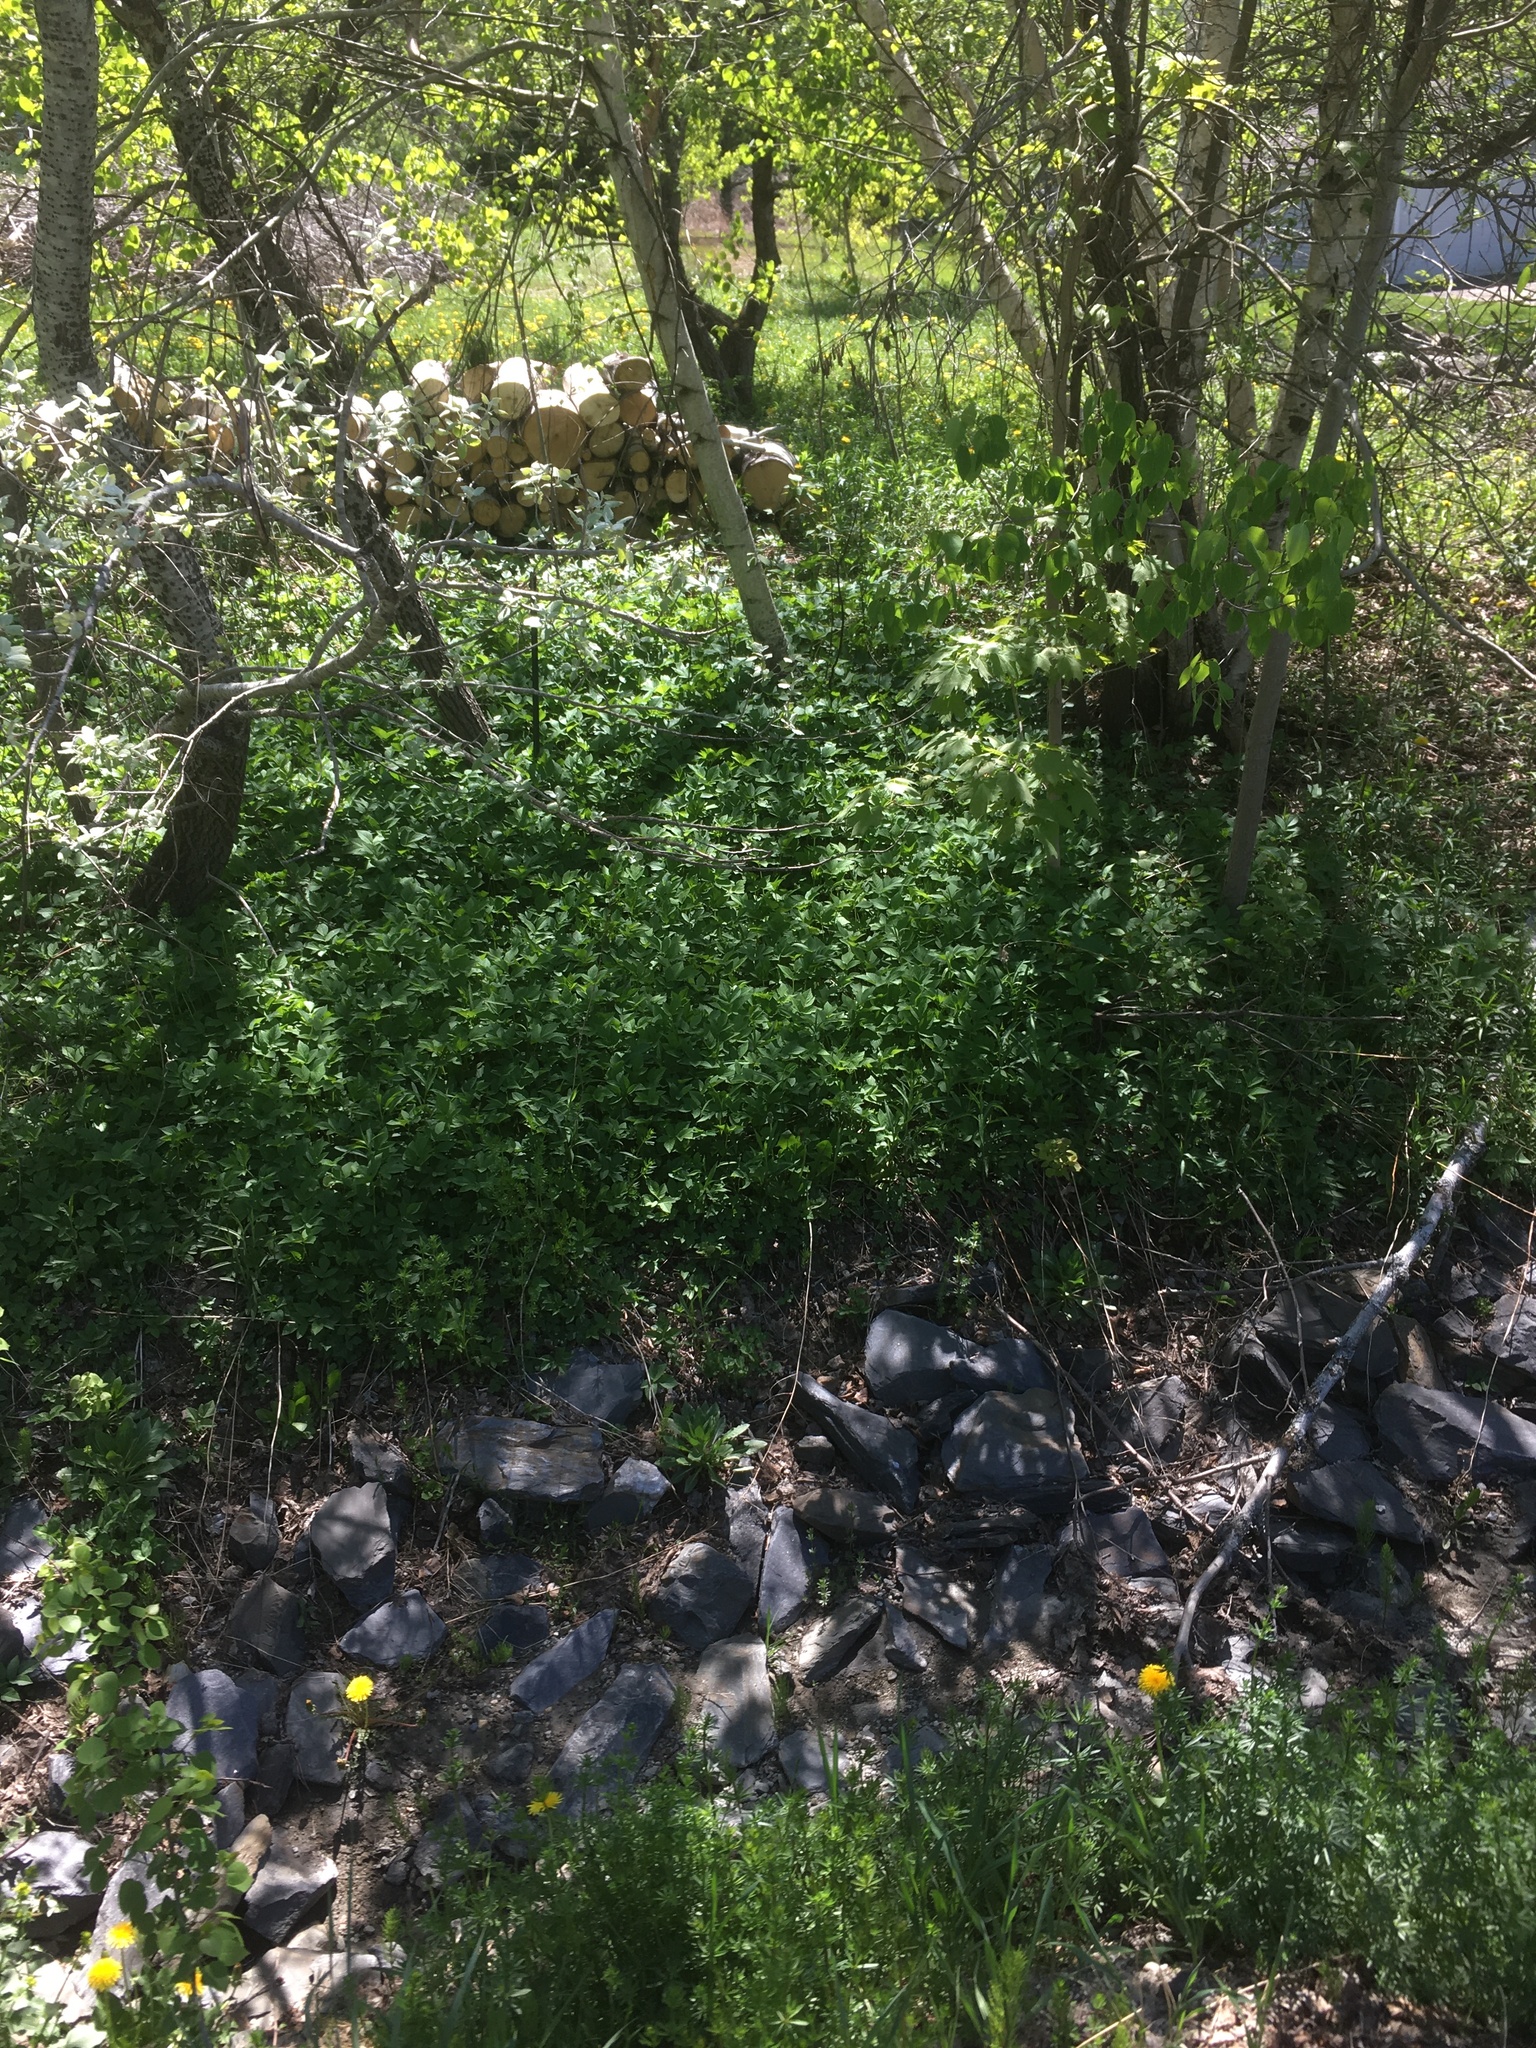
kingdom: Plantae
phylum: Tracheophyta
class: Magnoliopsida
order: Apiales
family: Apiaceae
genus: Aegopodium
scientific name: Aegopodium podagraria
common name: Ground-elder
